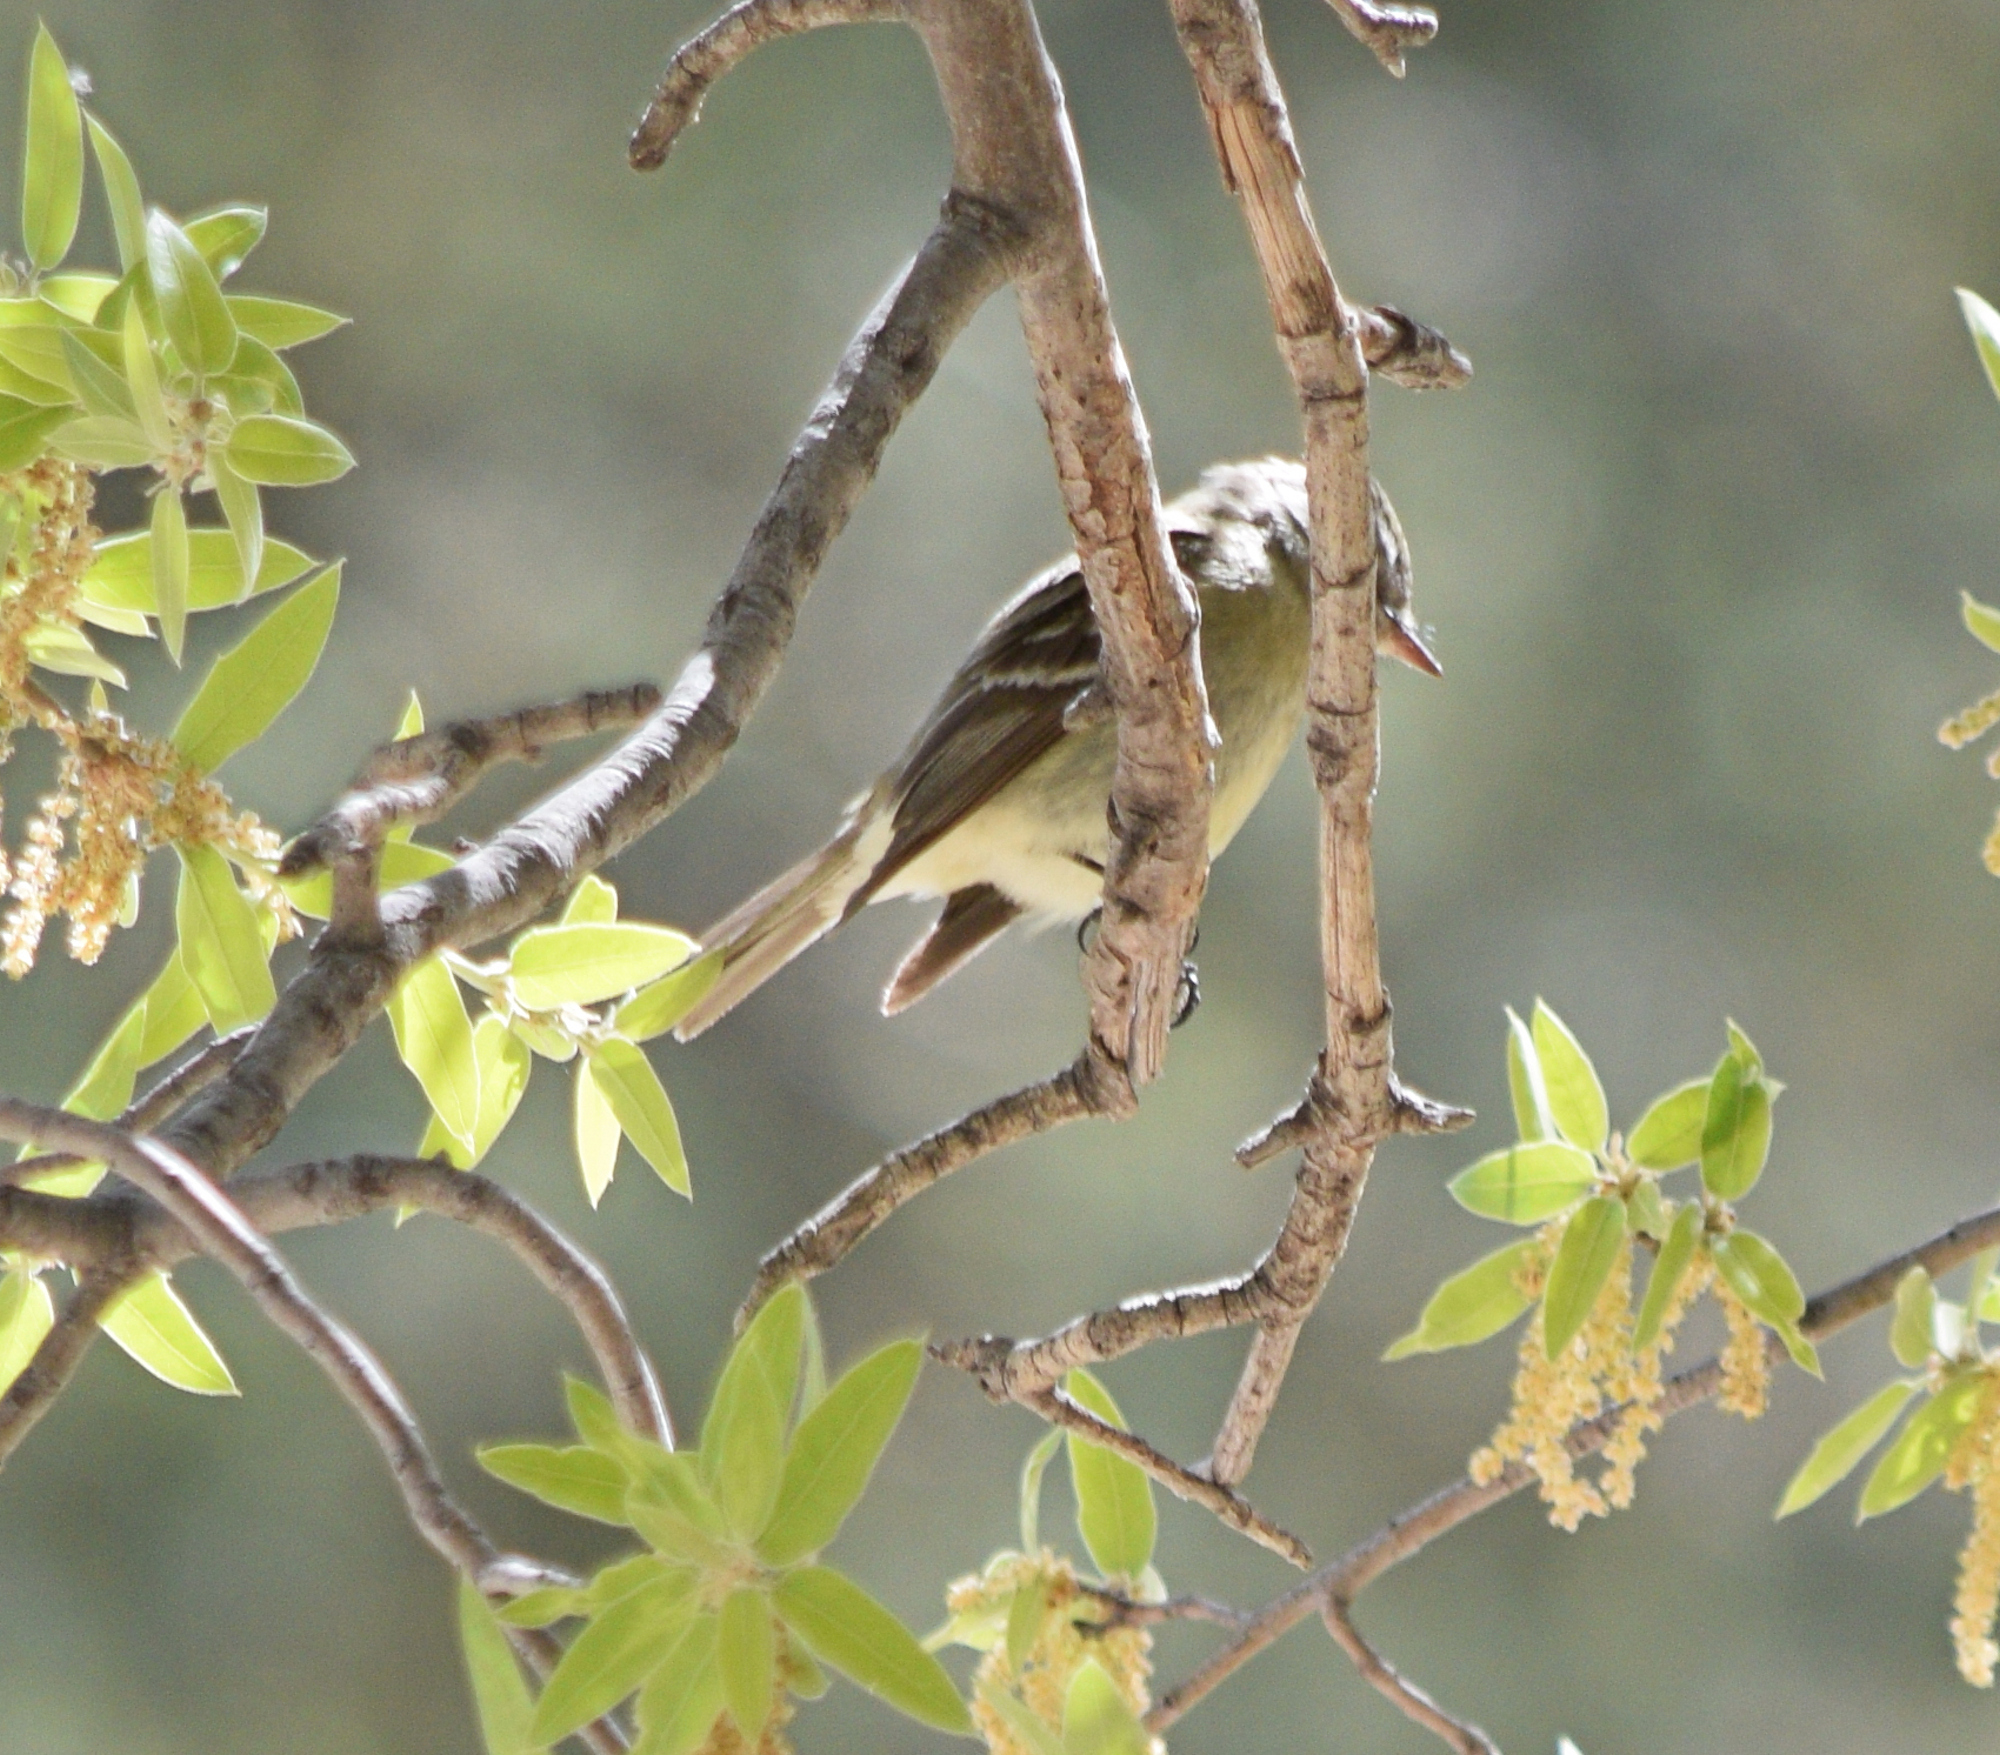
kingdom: Animalia
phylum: Chordata
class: Aves
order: Passeriformes
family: Tyrannidae
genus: Empidonax
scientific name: Empidonax difficilis
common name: Pacific-slope flycatcher
